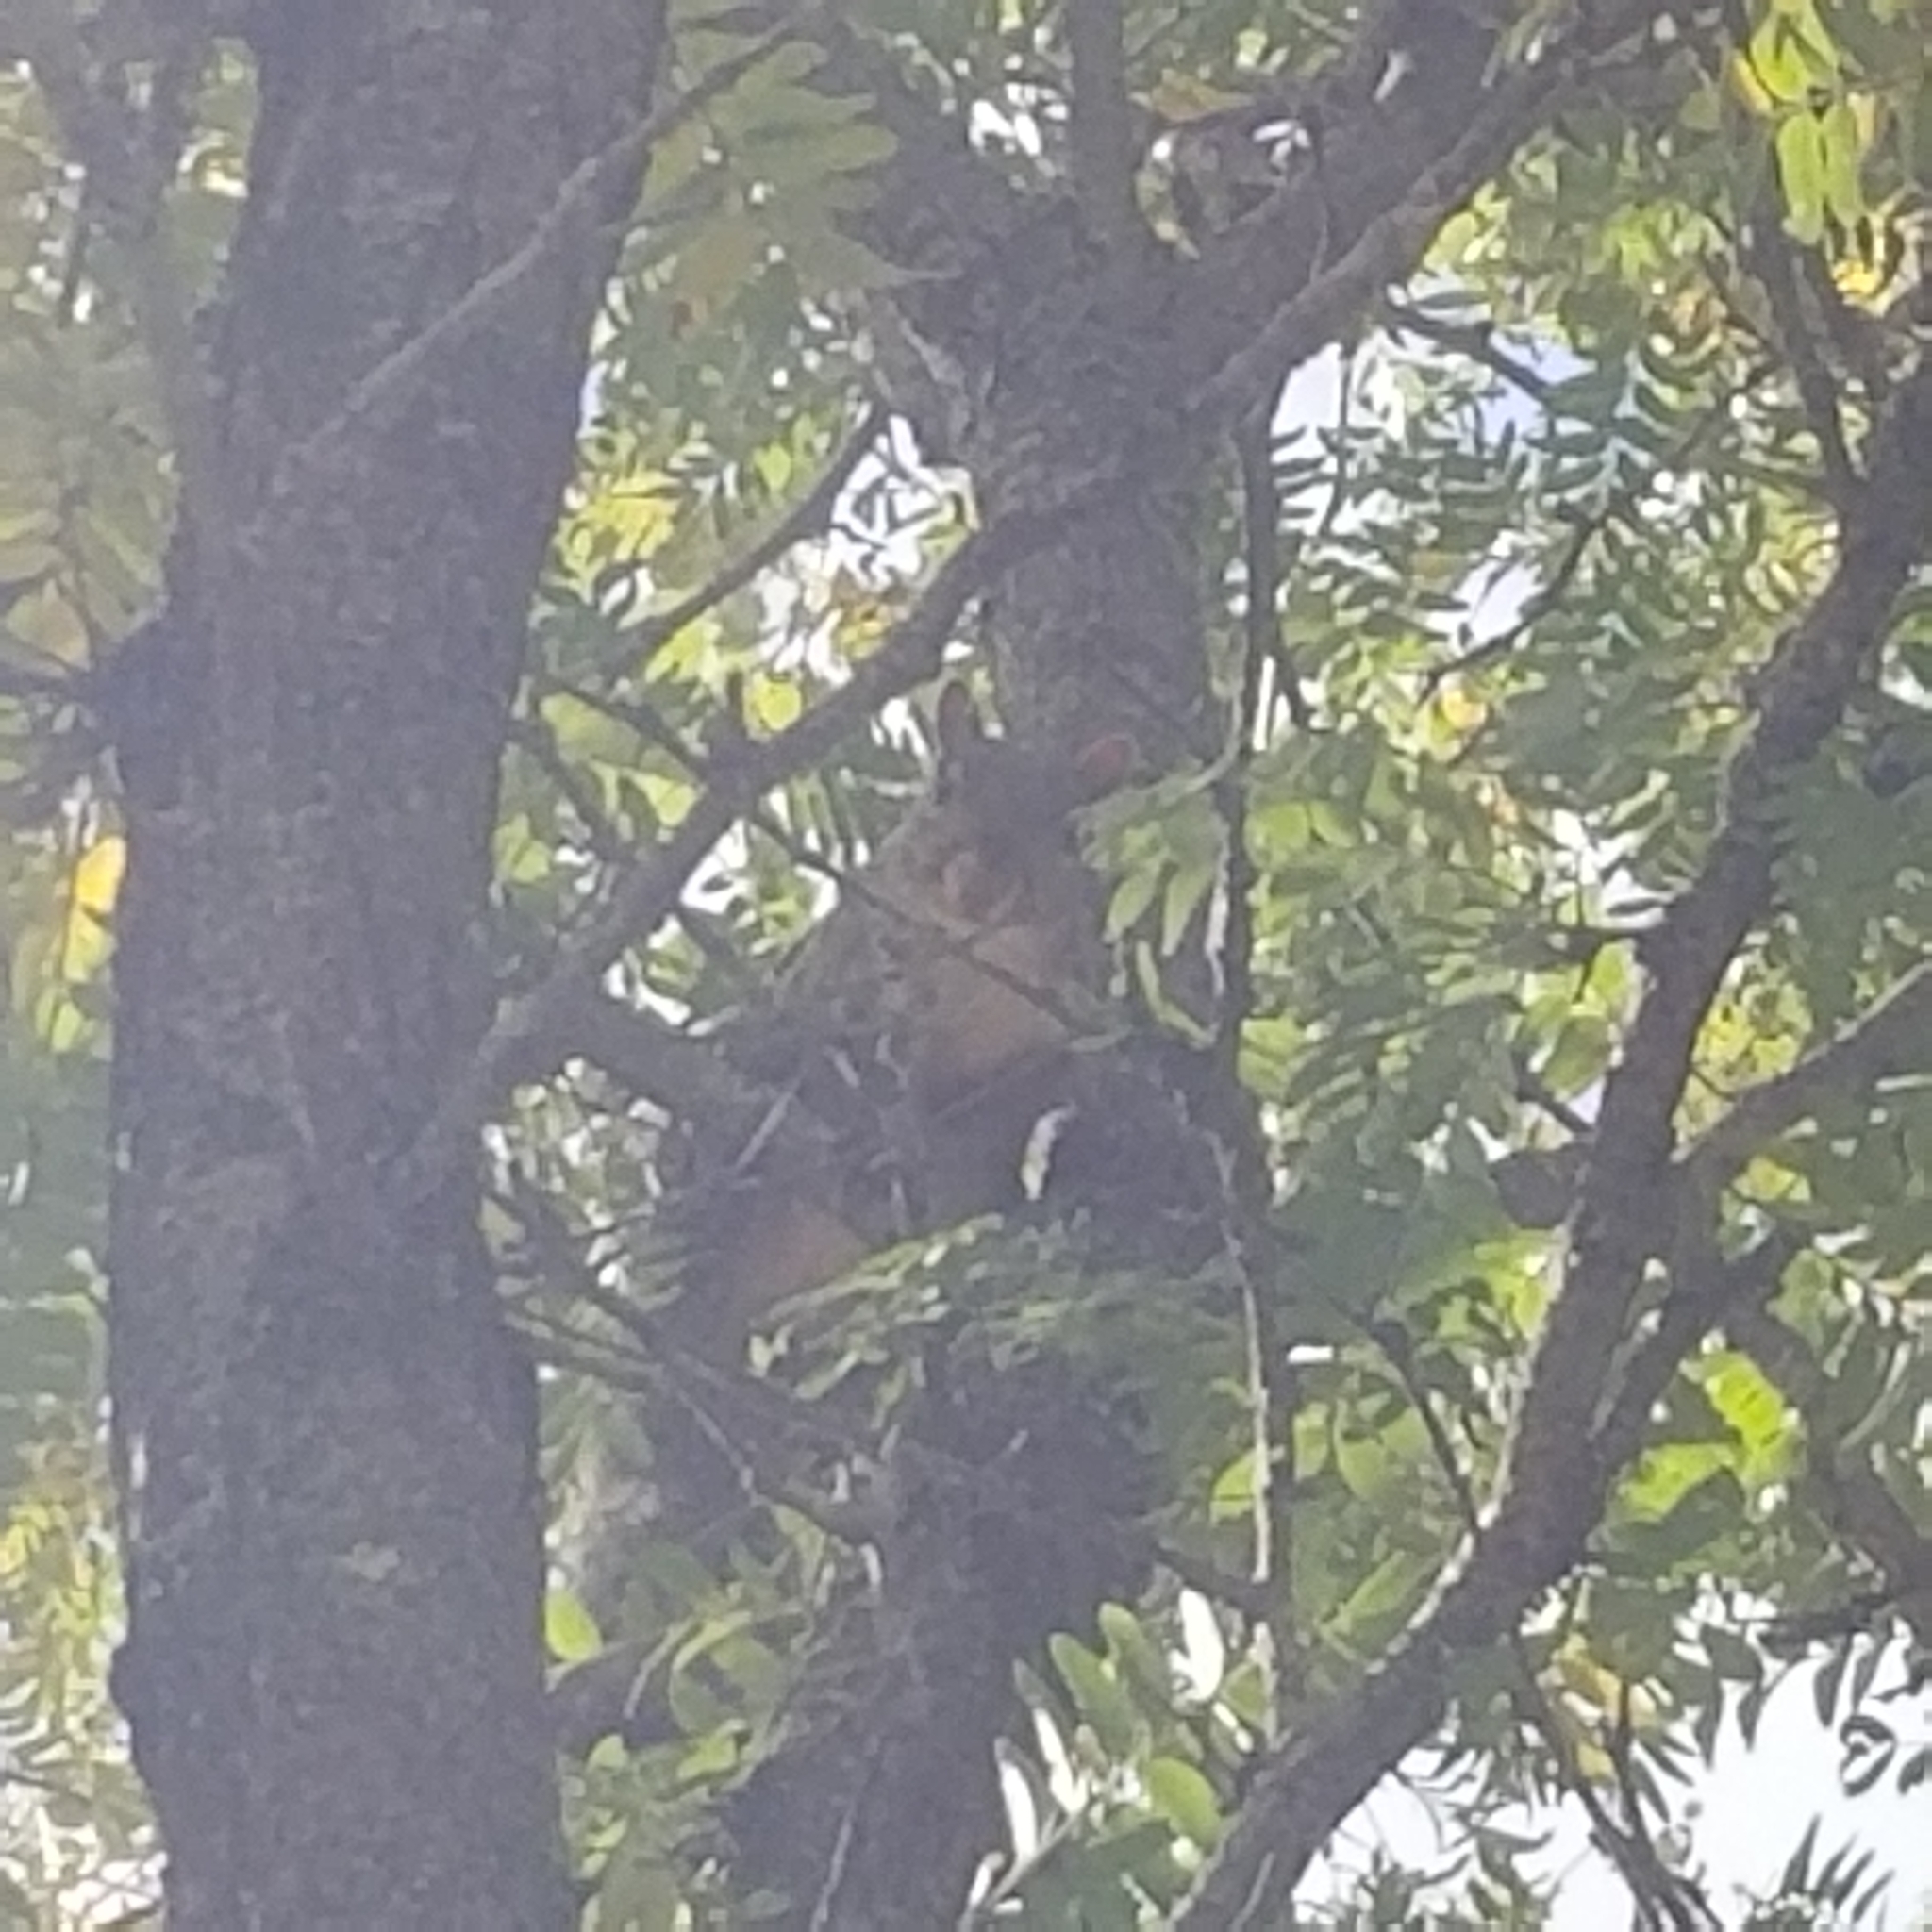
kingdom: Animalia
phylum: Chordata
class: Mammalia
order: Rodentia
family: Sciuridae
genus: Sciurus
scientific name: Sciurus carolinensis
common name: Eastern gray squirrel
